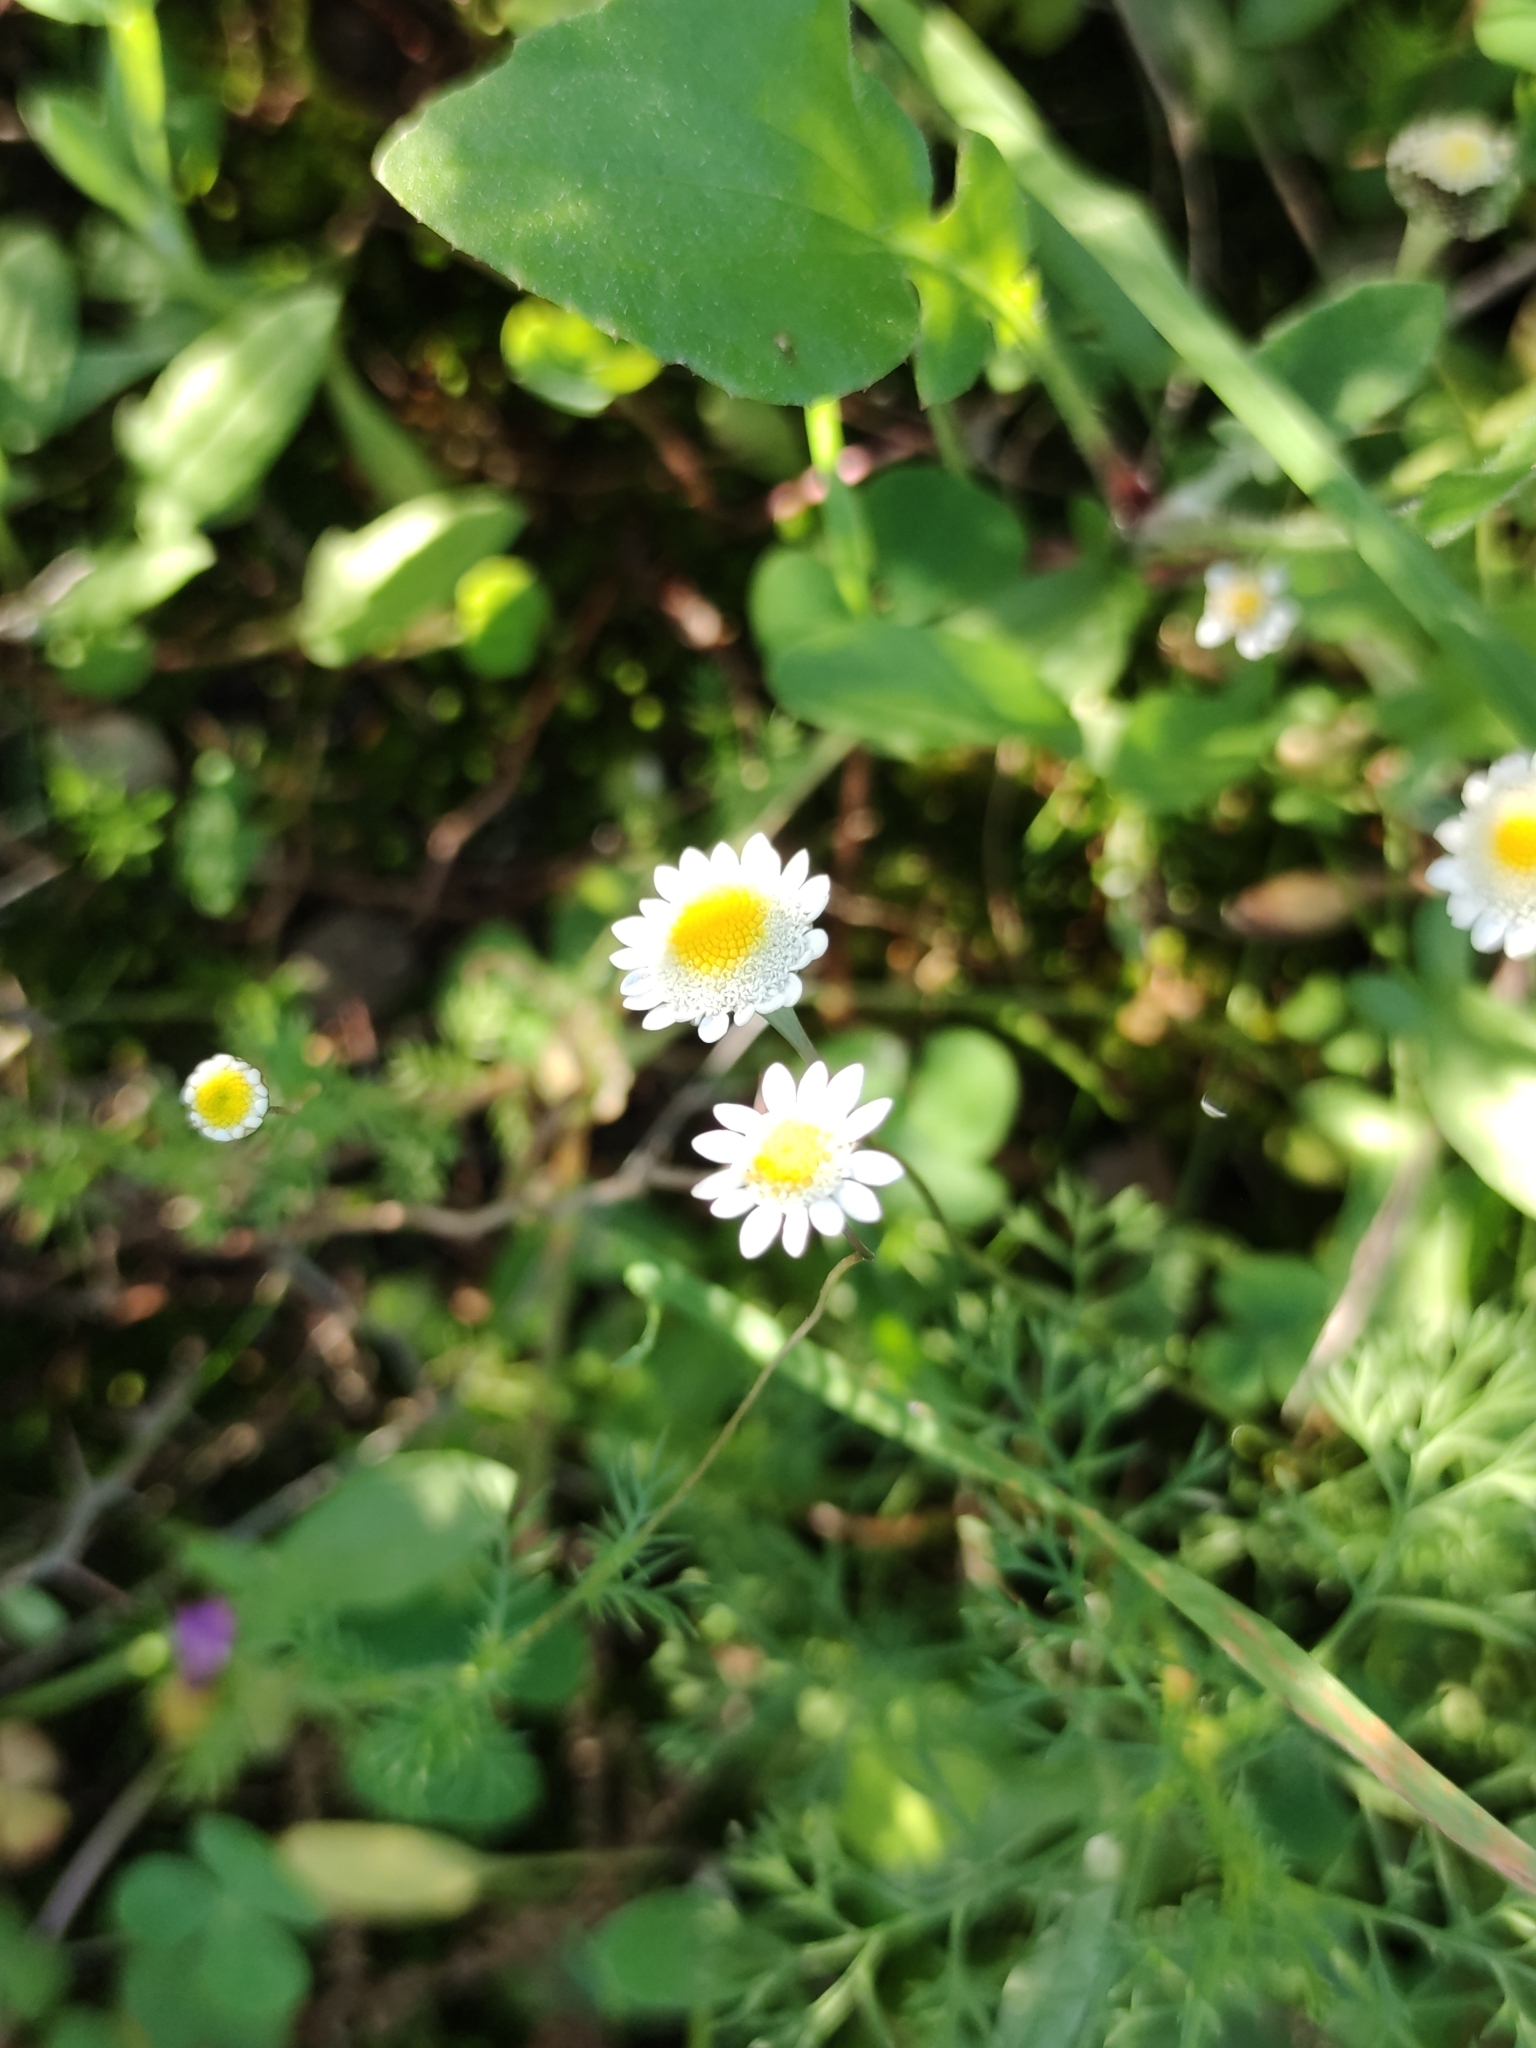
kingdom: Plantae
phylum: Tracheophyta
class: Magnoliopsida
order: Asterales
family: Asteraceae
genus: Cotula
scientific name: Cotula turbinata
